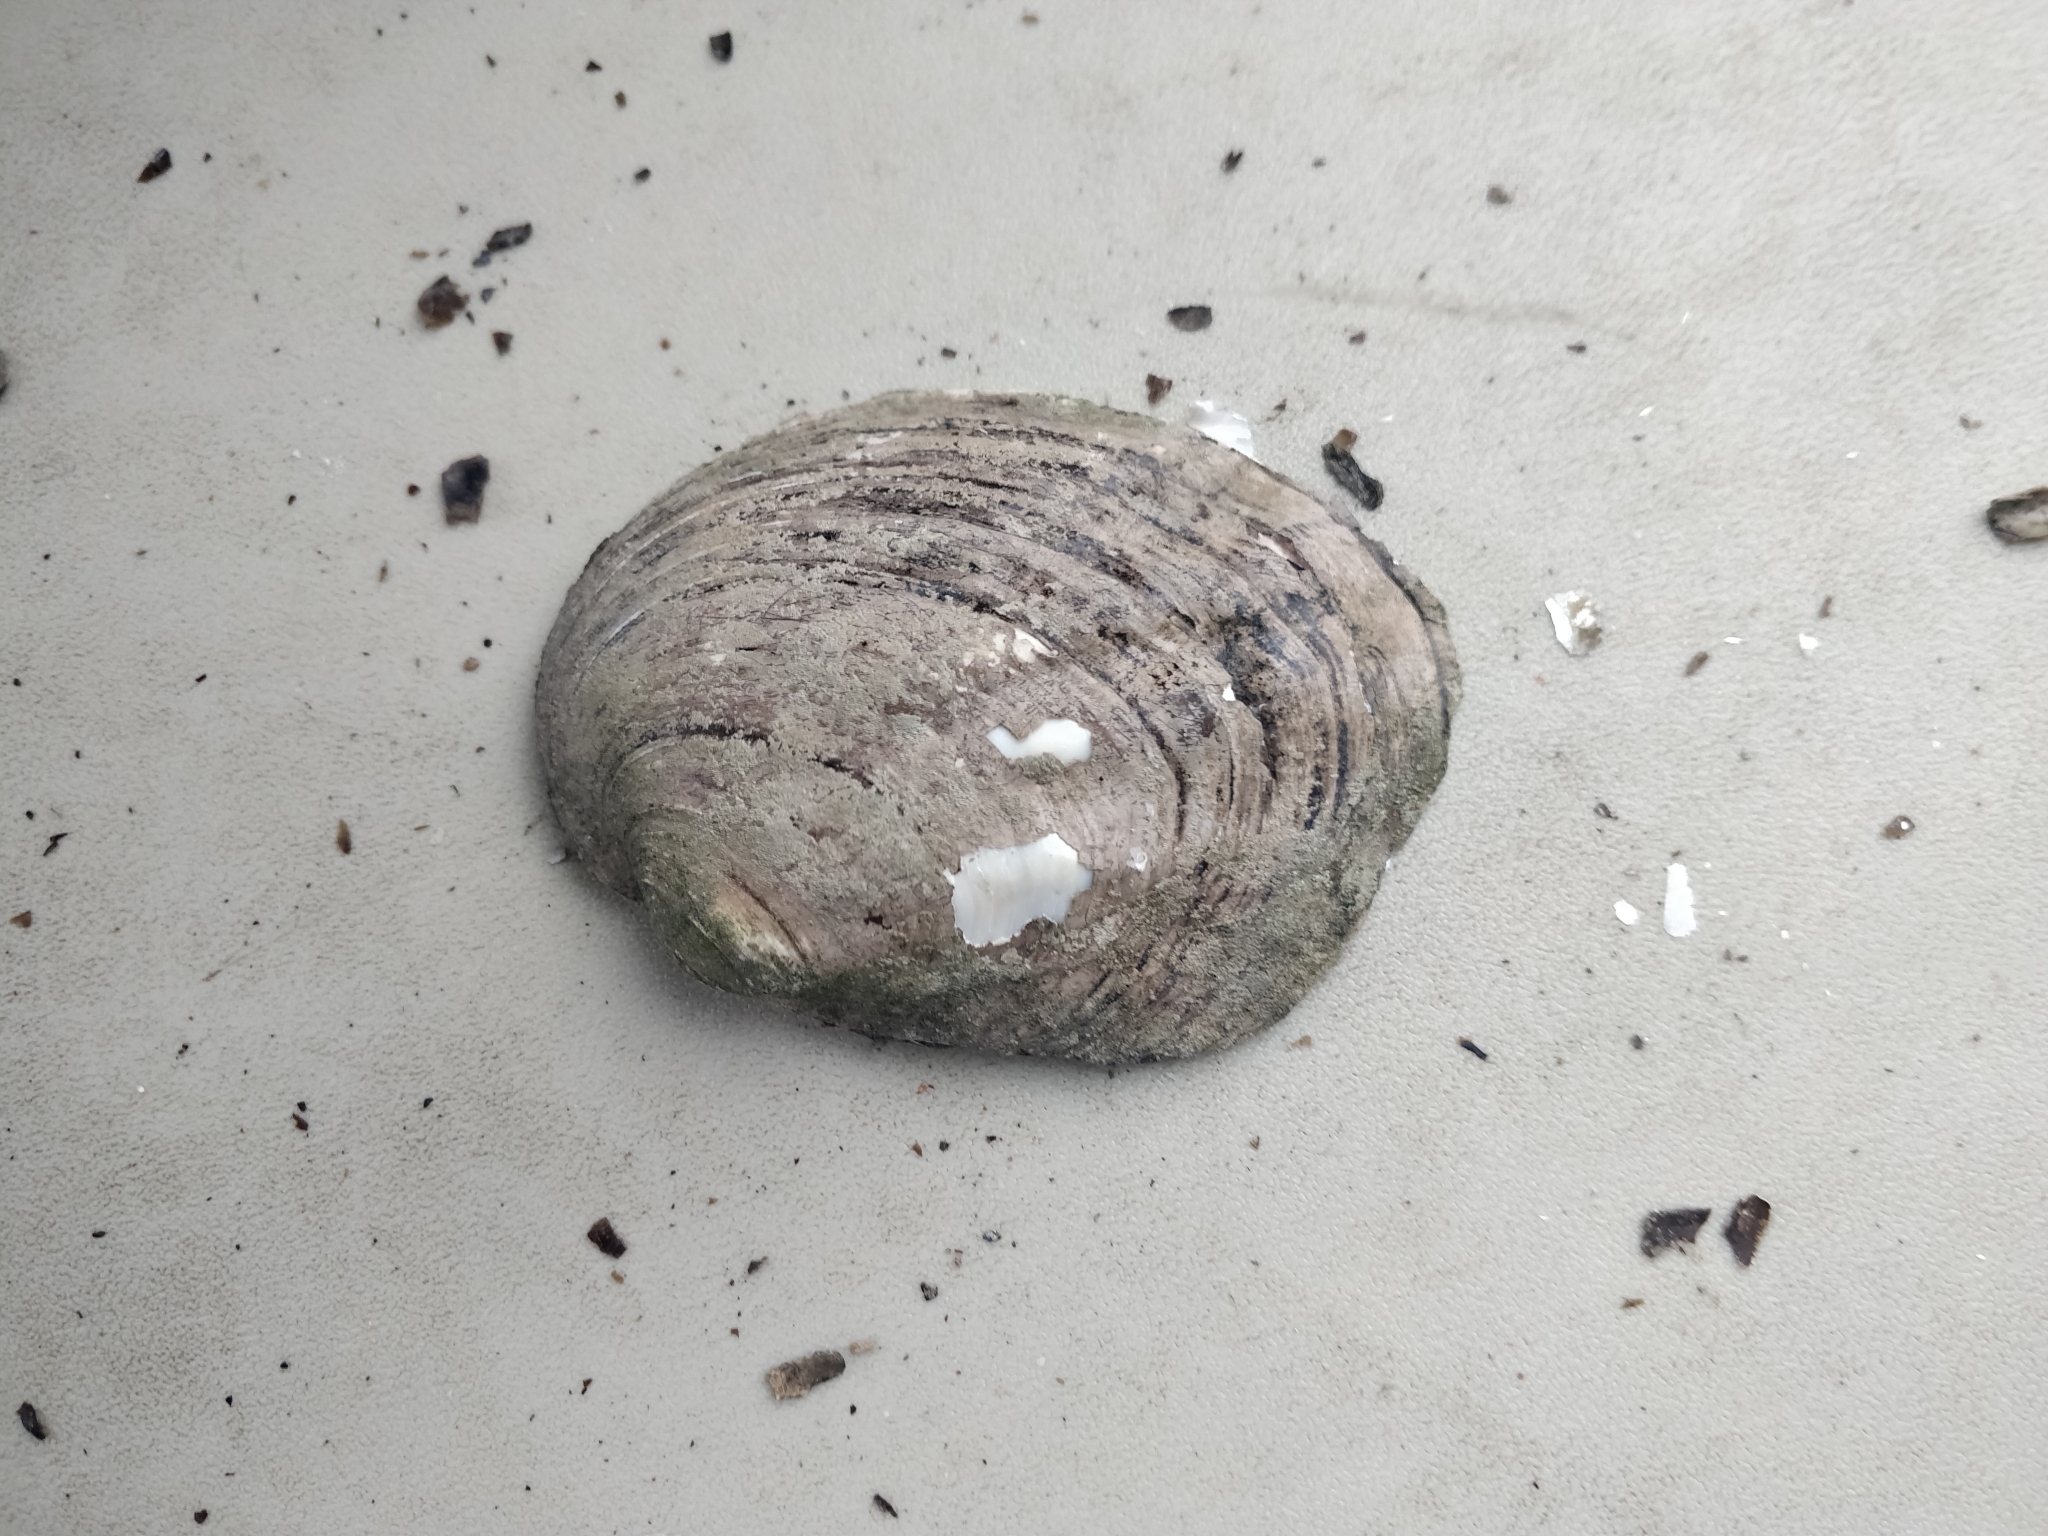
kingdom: Animalia
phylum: Mollusca
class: Bivalvia
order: Unionida
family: Unionidae
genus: Amblema
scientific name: Amblema plicata
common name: Threeridge
